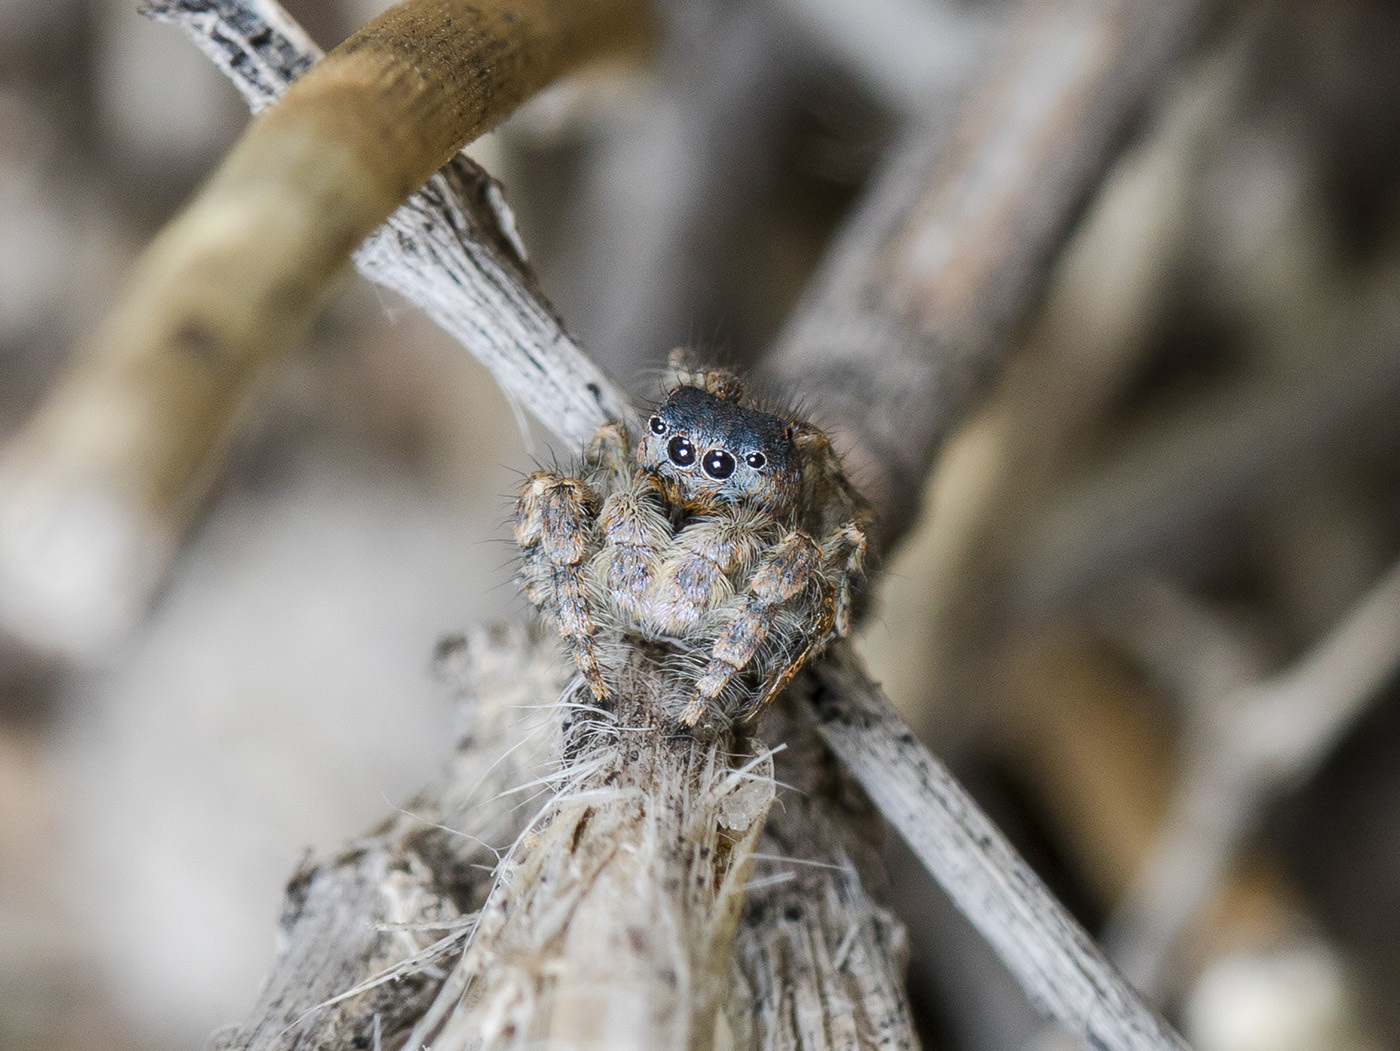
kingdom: Animalia
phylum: Arthropoda
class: Arachnida
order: Araneae
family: Salticidae
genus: Yllenus
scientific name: Yllenus zyuzini
